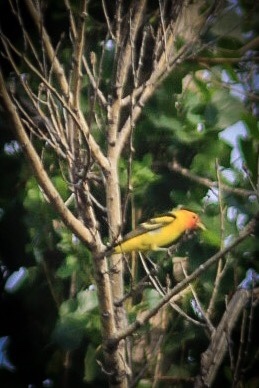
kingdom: Animalia
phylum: Chordata
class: Aves
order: Passeriformes
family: Cardinalidae
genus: Piranga
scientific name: Piranga ludoviciana
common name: Western tanager
